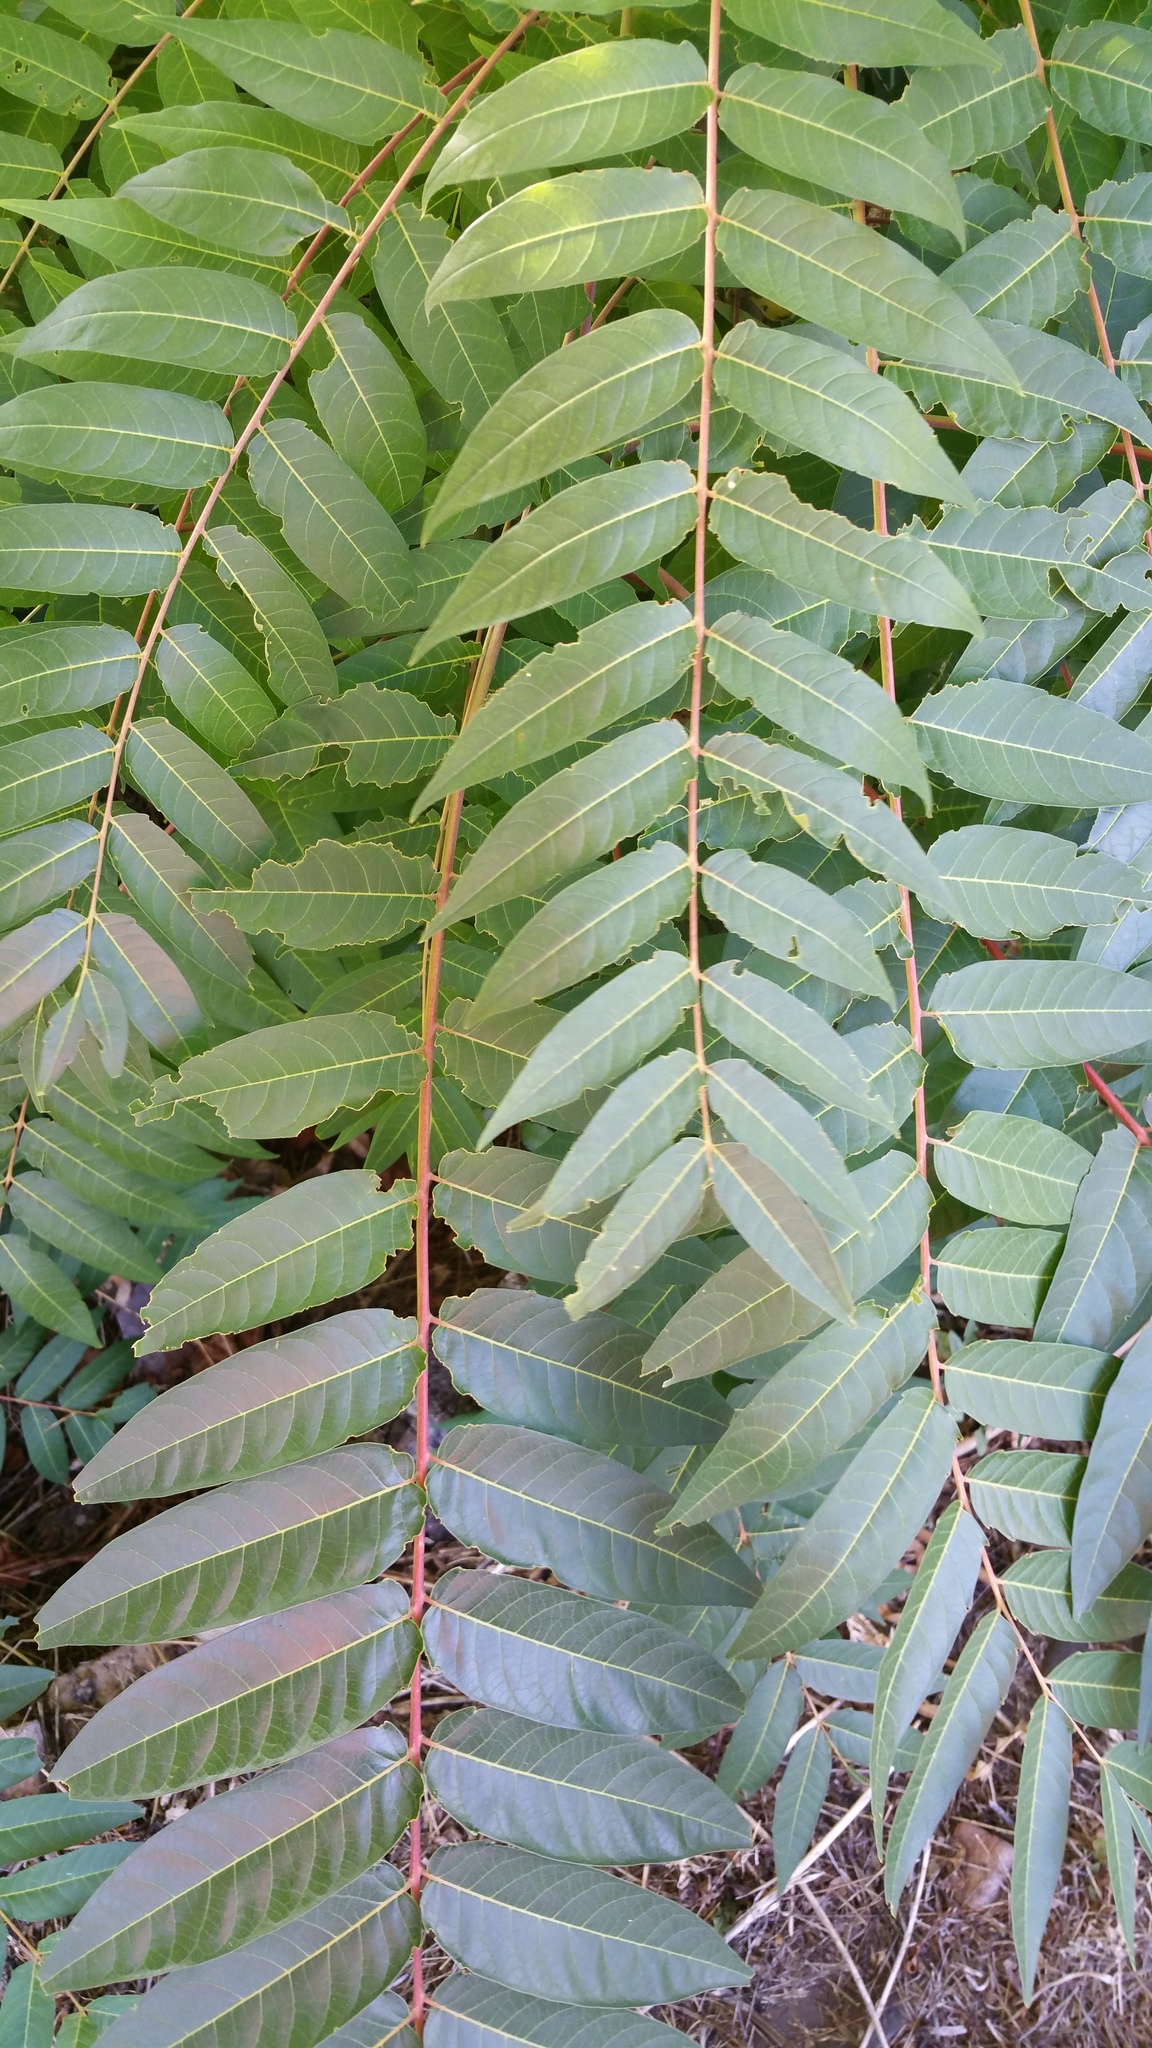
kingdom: Plantae
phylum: Tracheophyta
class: Magnoliopsida
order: Sapindales
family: Simaroubaceae
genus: Ailanthus
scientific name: Ailanthus altissima
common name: Tree-of-heaven
